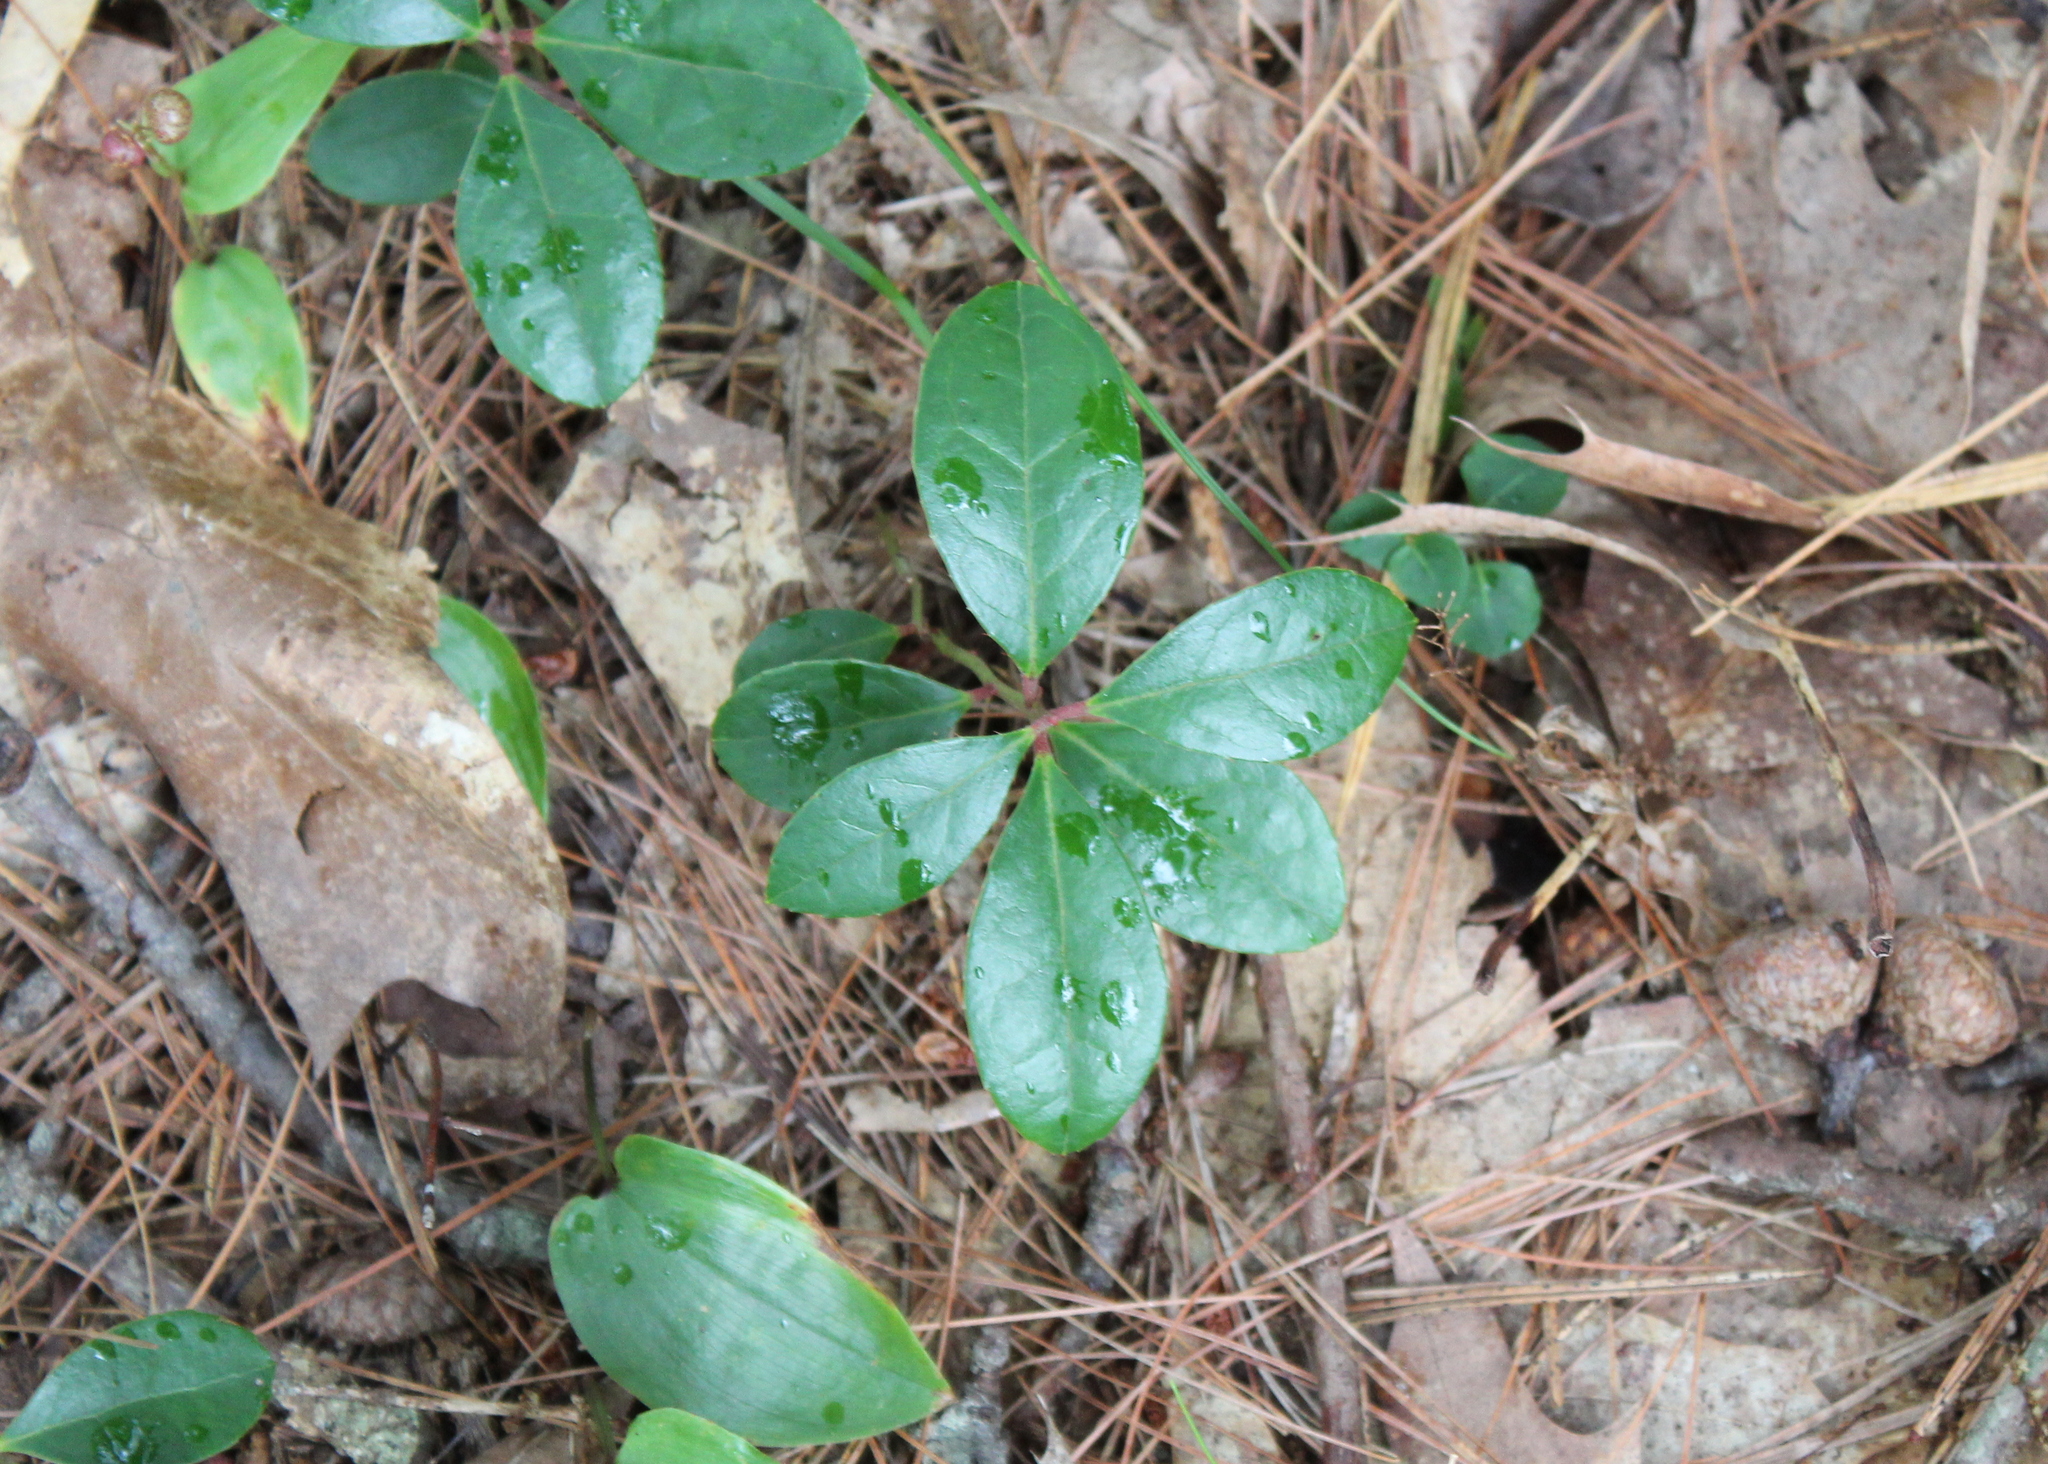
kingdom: Plantae
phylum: Tracheophyta
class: Magnoliopsida
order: Ericales
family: Ericaceae
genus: Gaultheria
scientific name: Gaultheria procumbens
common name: Checkerberry
